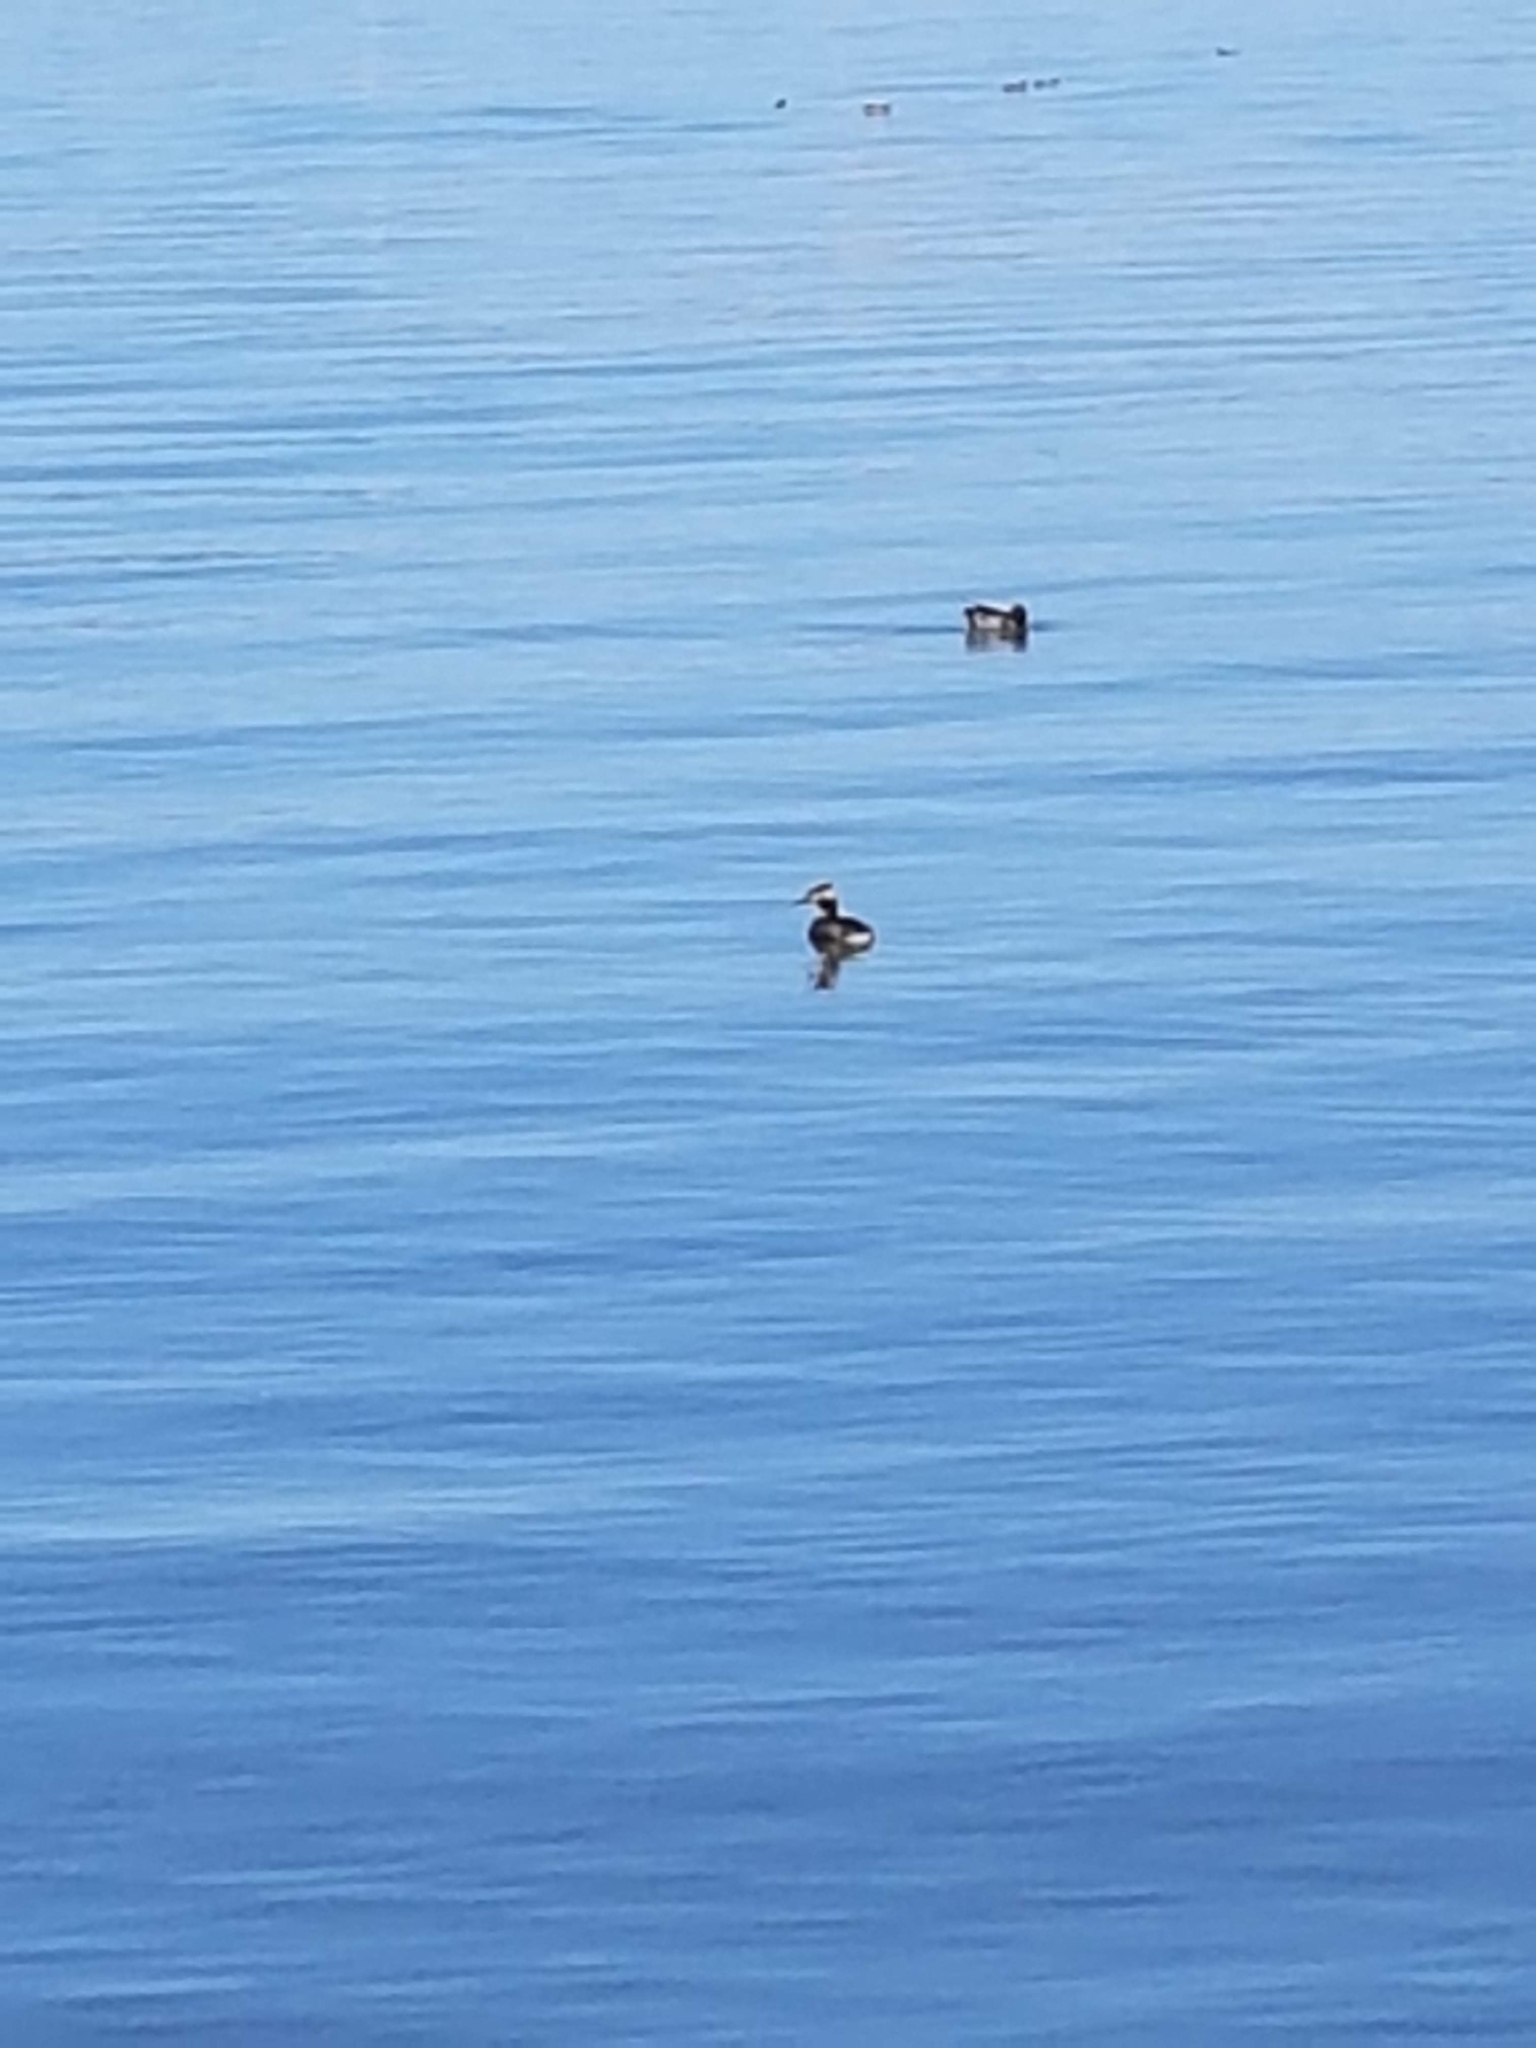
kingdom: Animalia
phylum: Chordata
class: Aves
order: Podicipediformes
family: Podicipedidae
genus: Podiceps
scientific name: Podiceps cristatus
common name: Great crested grebe
